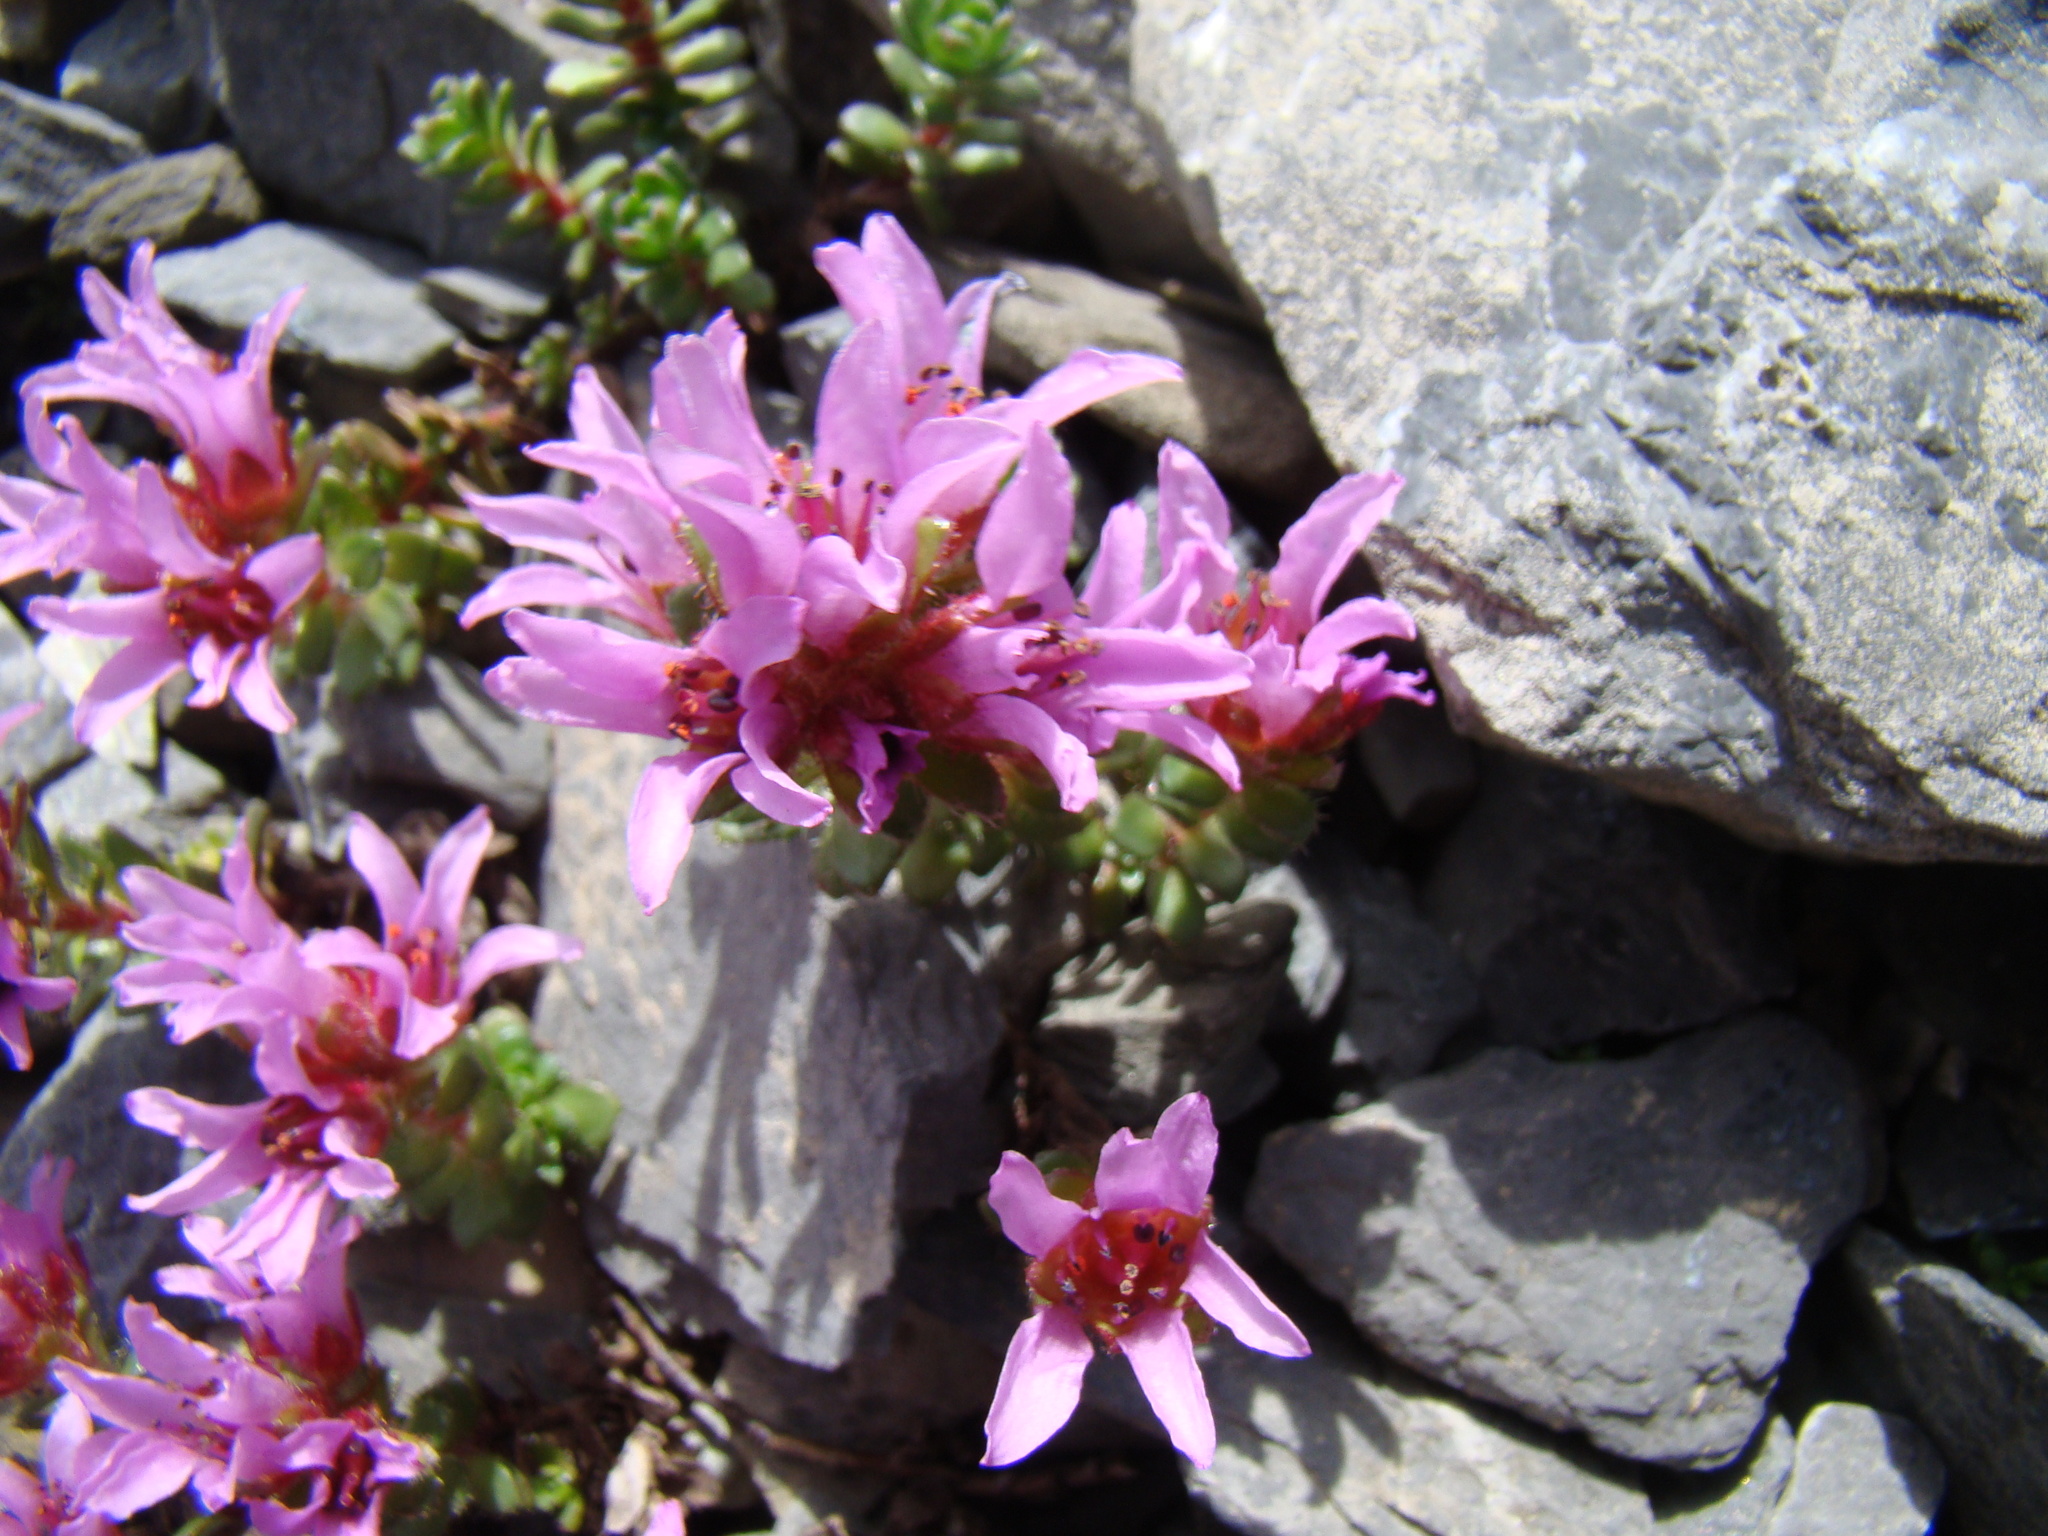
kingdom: Plantae
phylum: Tracheophyta
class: Magnoliopsida
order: Saxifragales
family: Saxifragaceae
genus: Saxifraga
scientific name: Saxifraga biflora
